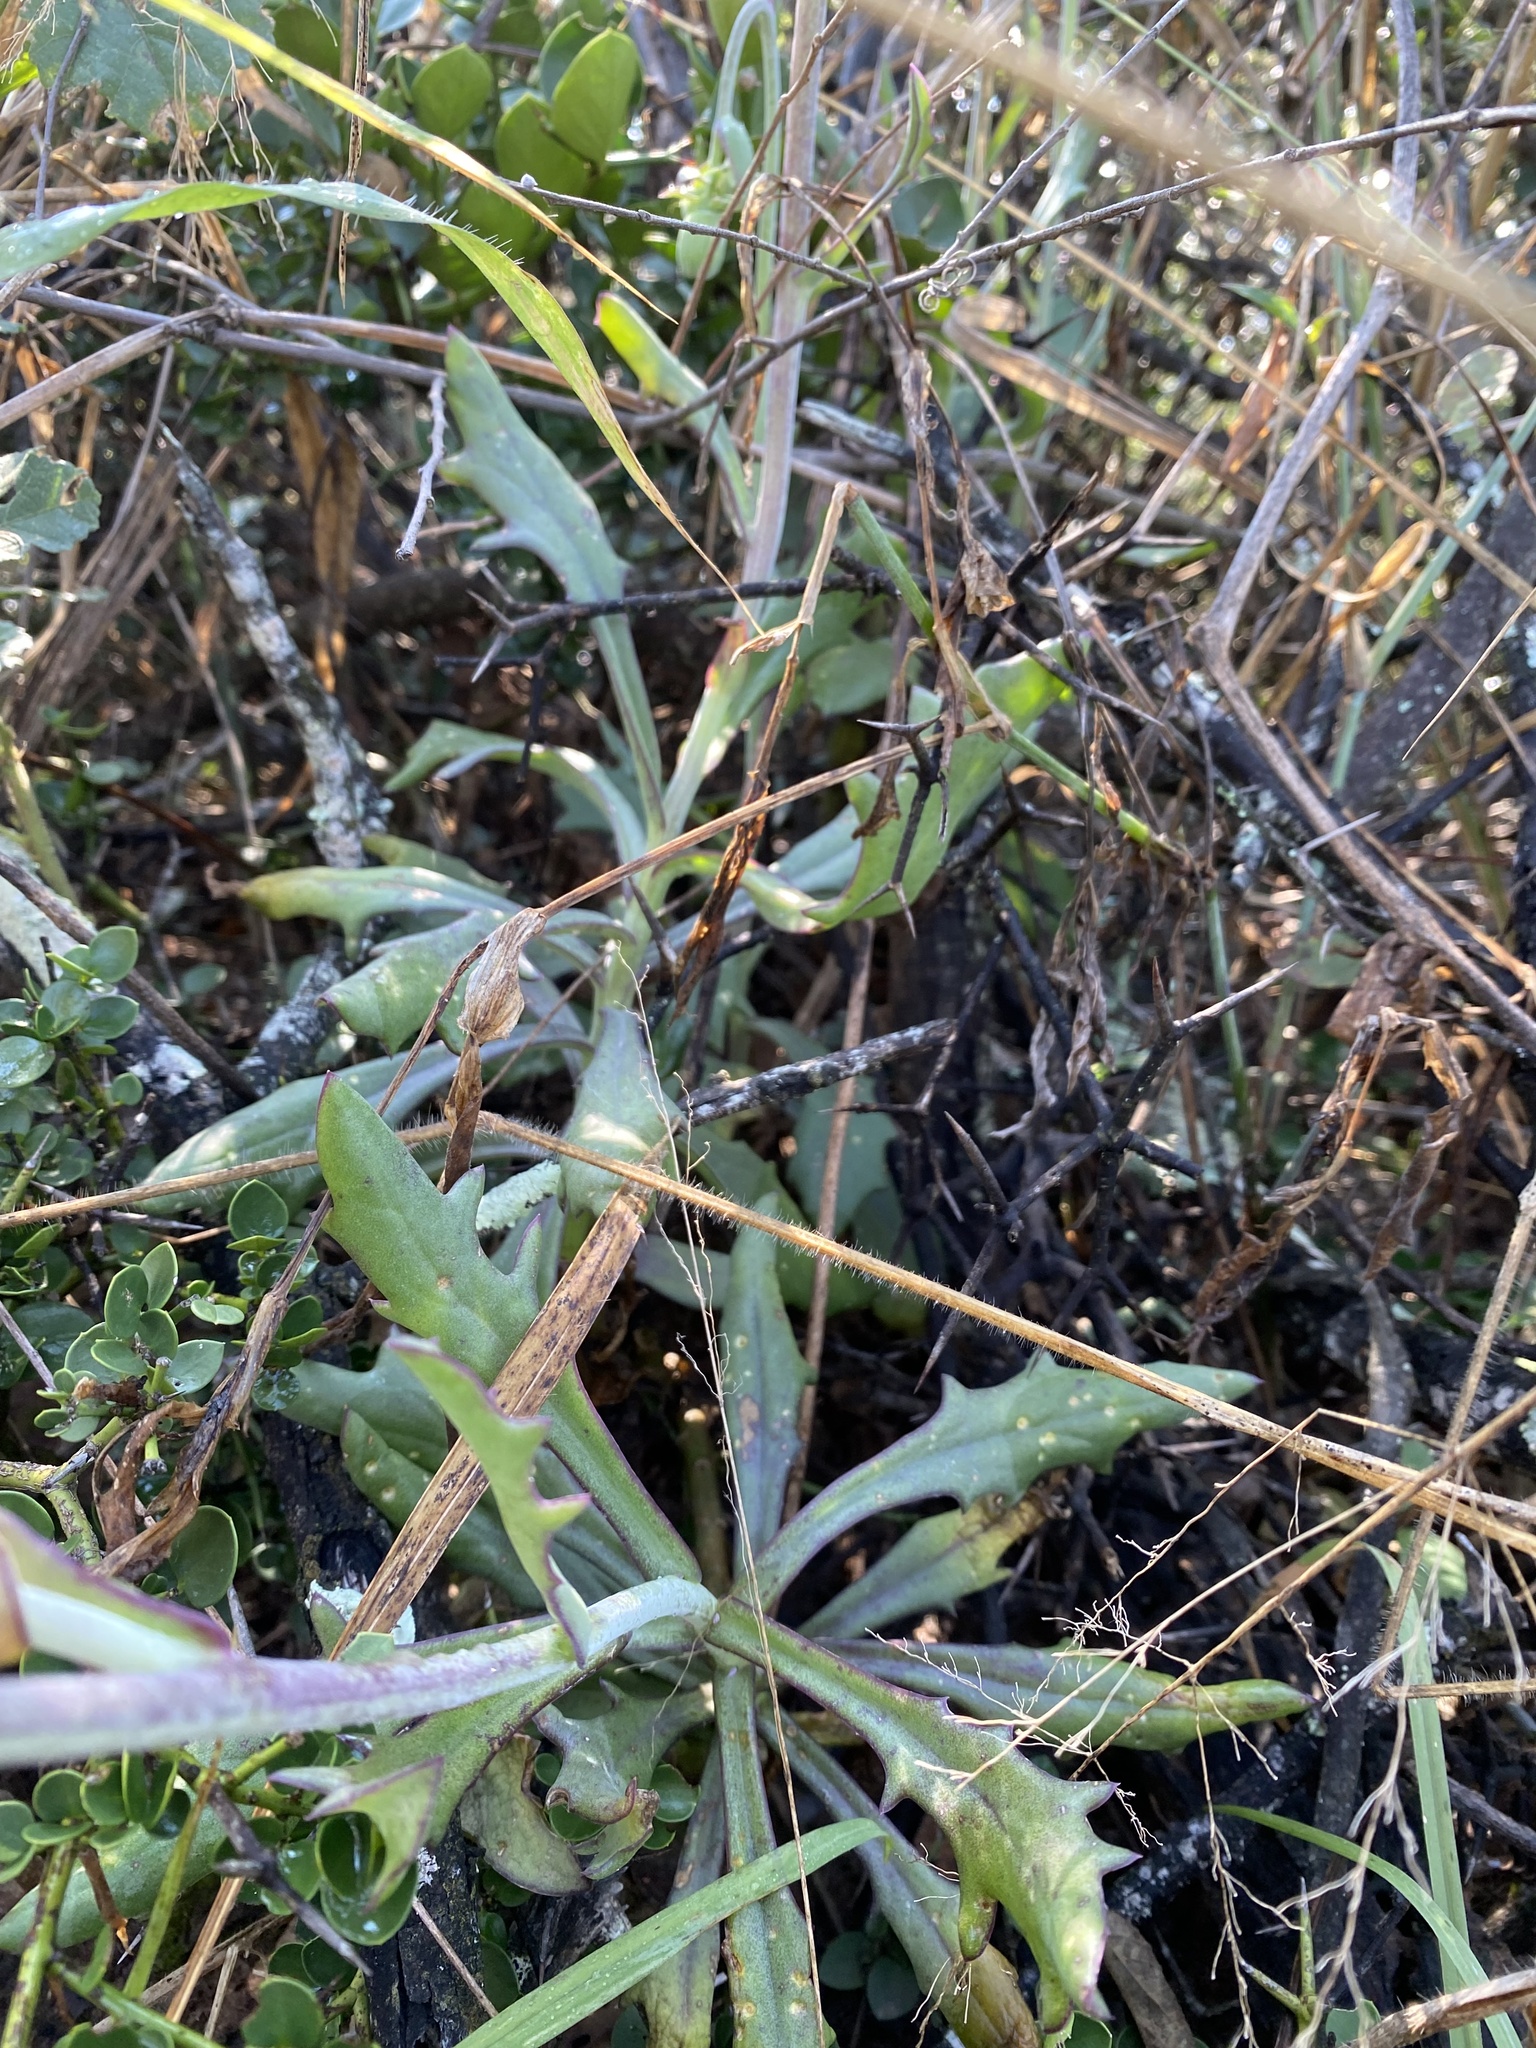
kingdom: Plantae
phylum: Tracheophyta
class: Magnoliopsida
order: Asterales
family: Asteraceae
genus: Kleinia
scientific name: Kleinia fulgens
